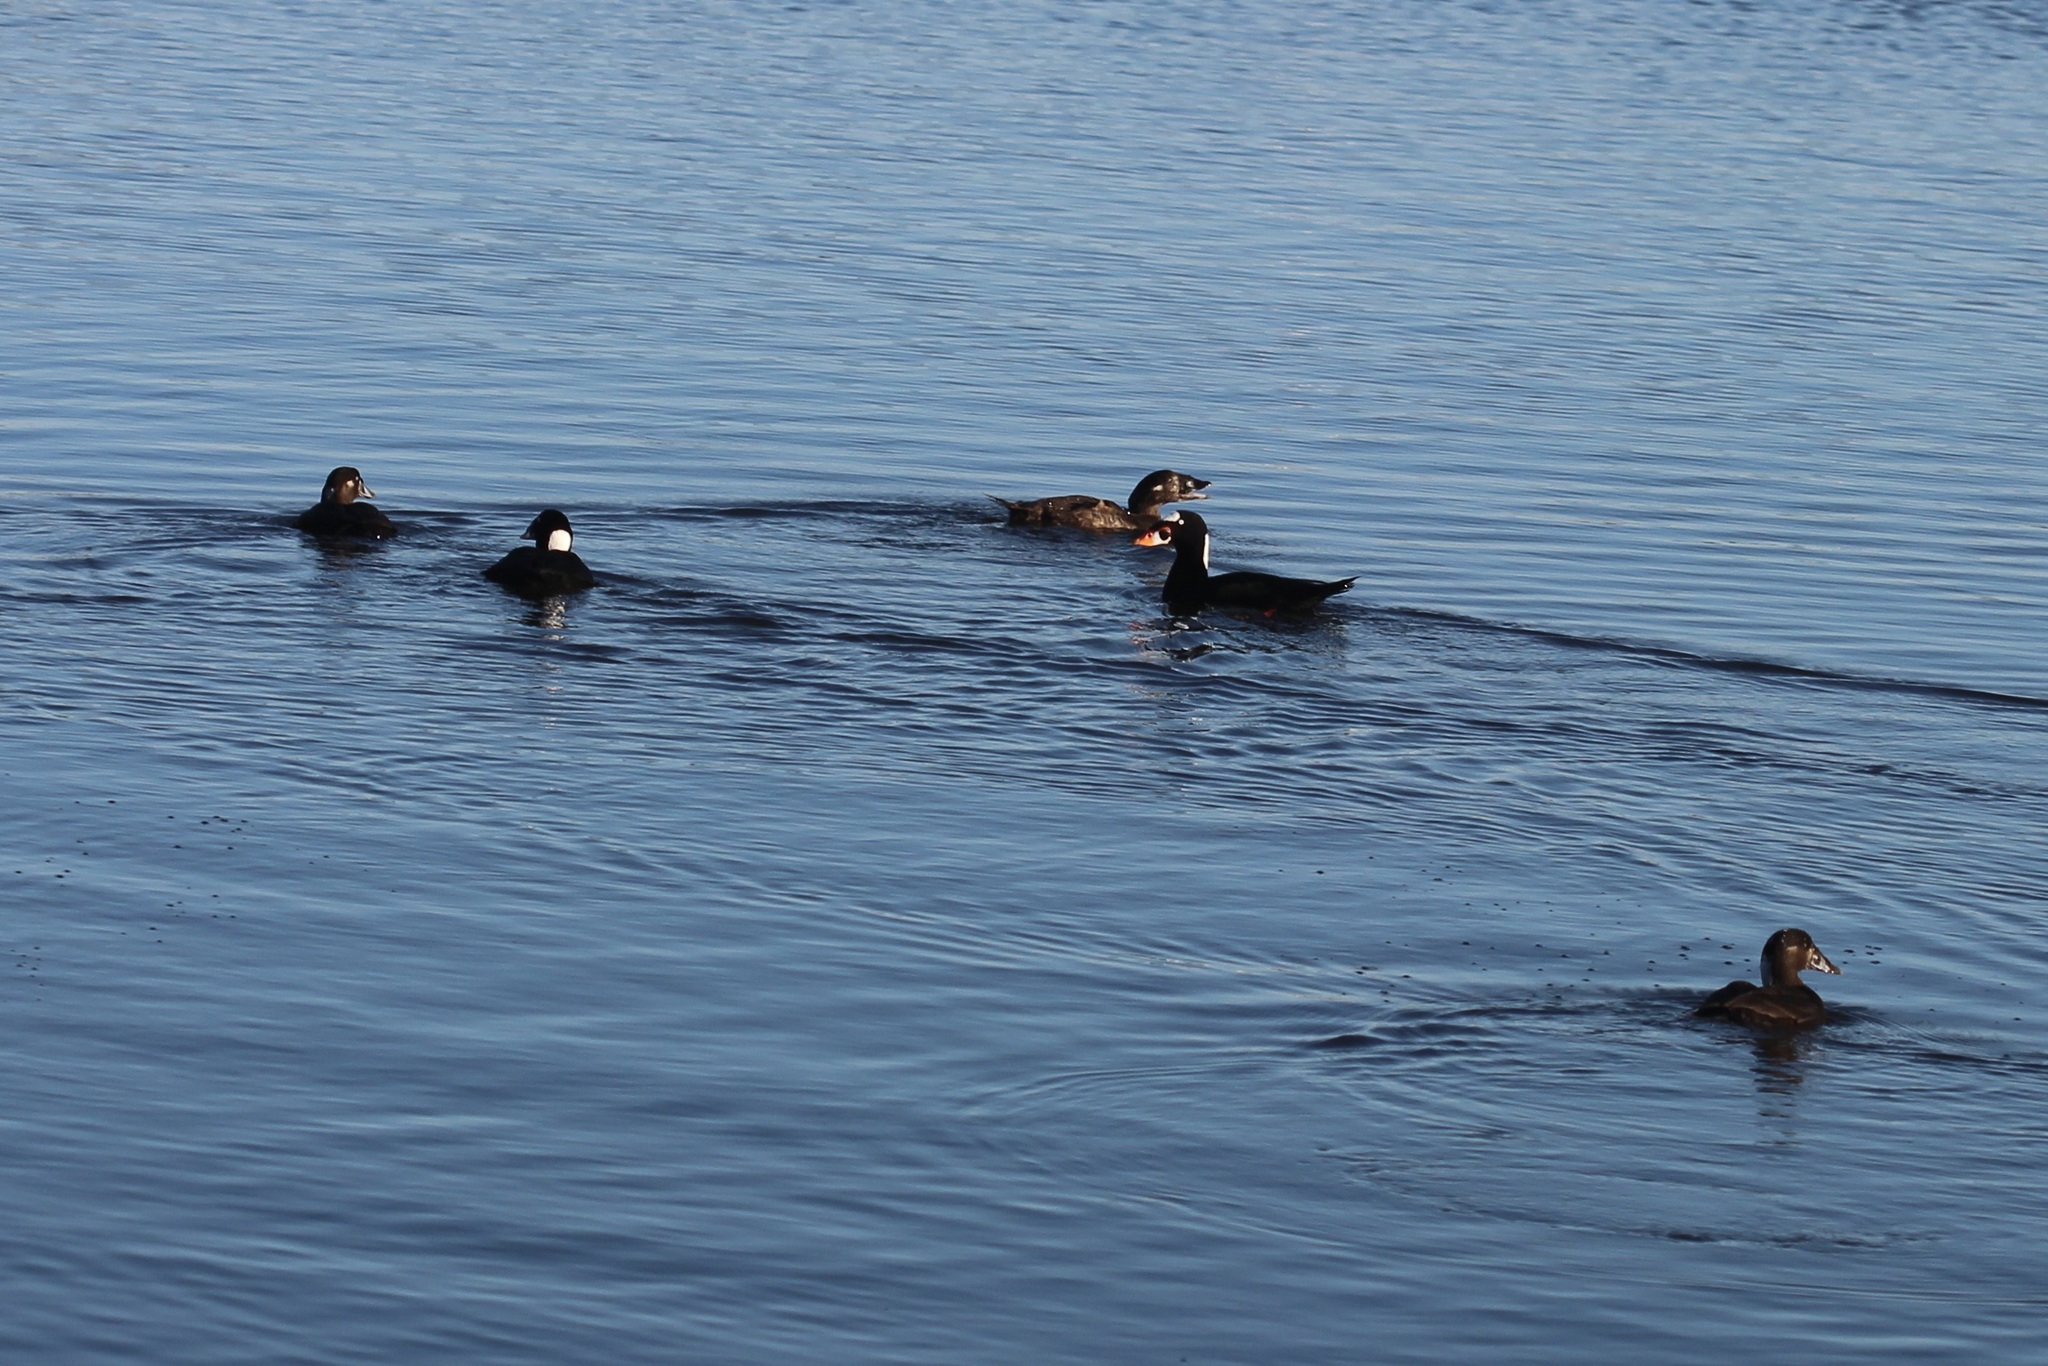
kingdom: Animalia
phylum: Chordata
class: Aves
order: Anseriformes
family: Anatidae
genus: Melanitta
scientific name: Melanitta perspicillata
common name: Surf scoter
